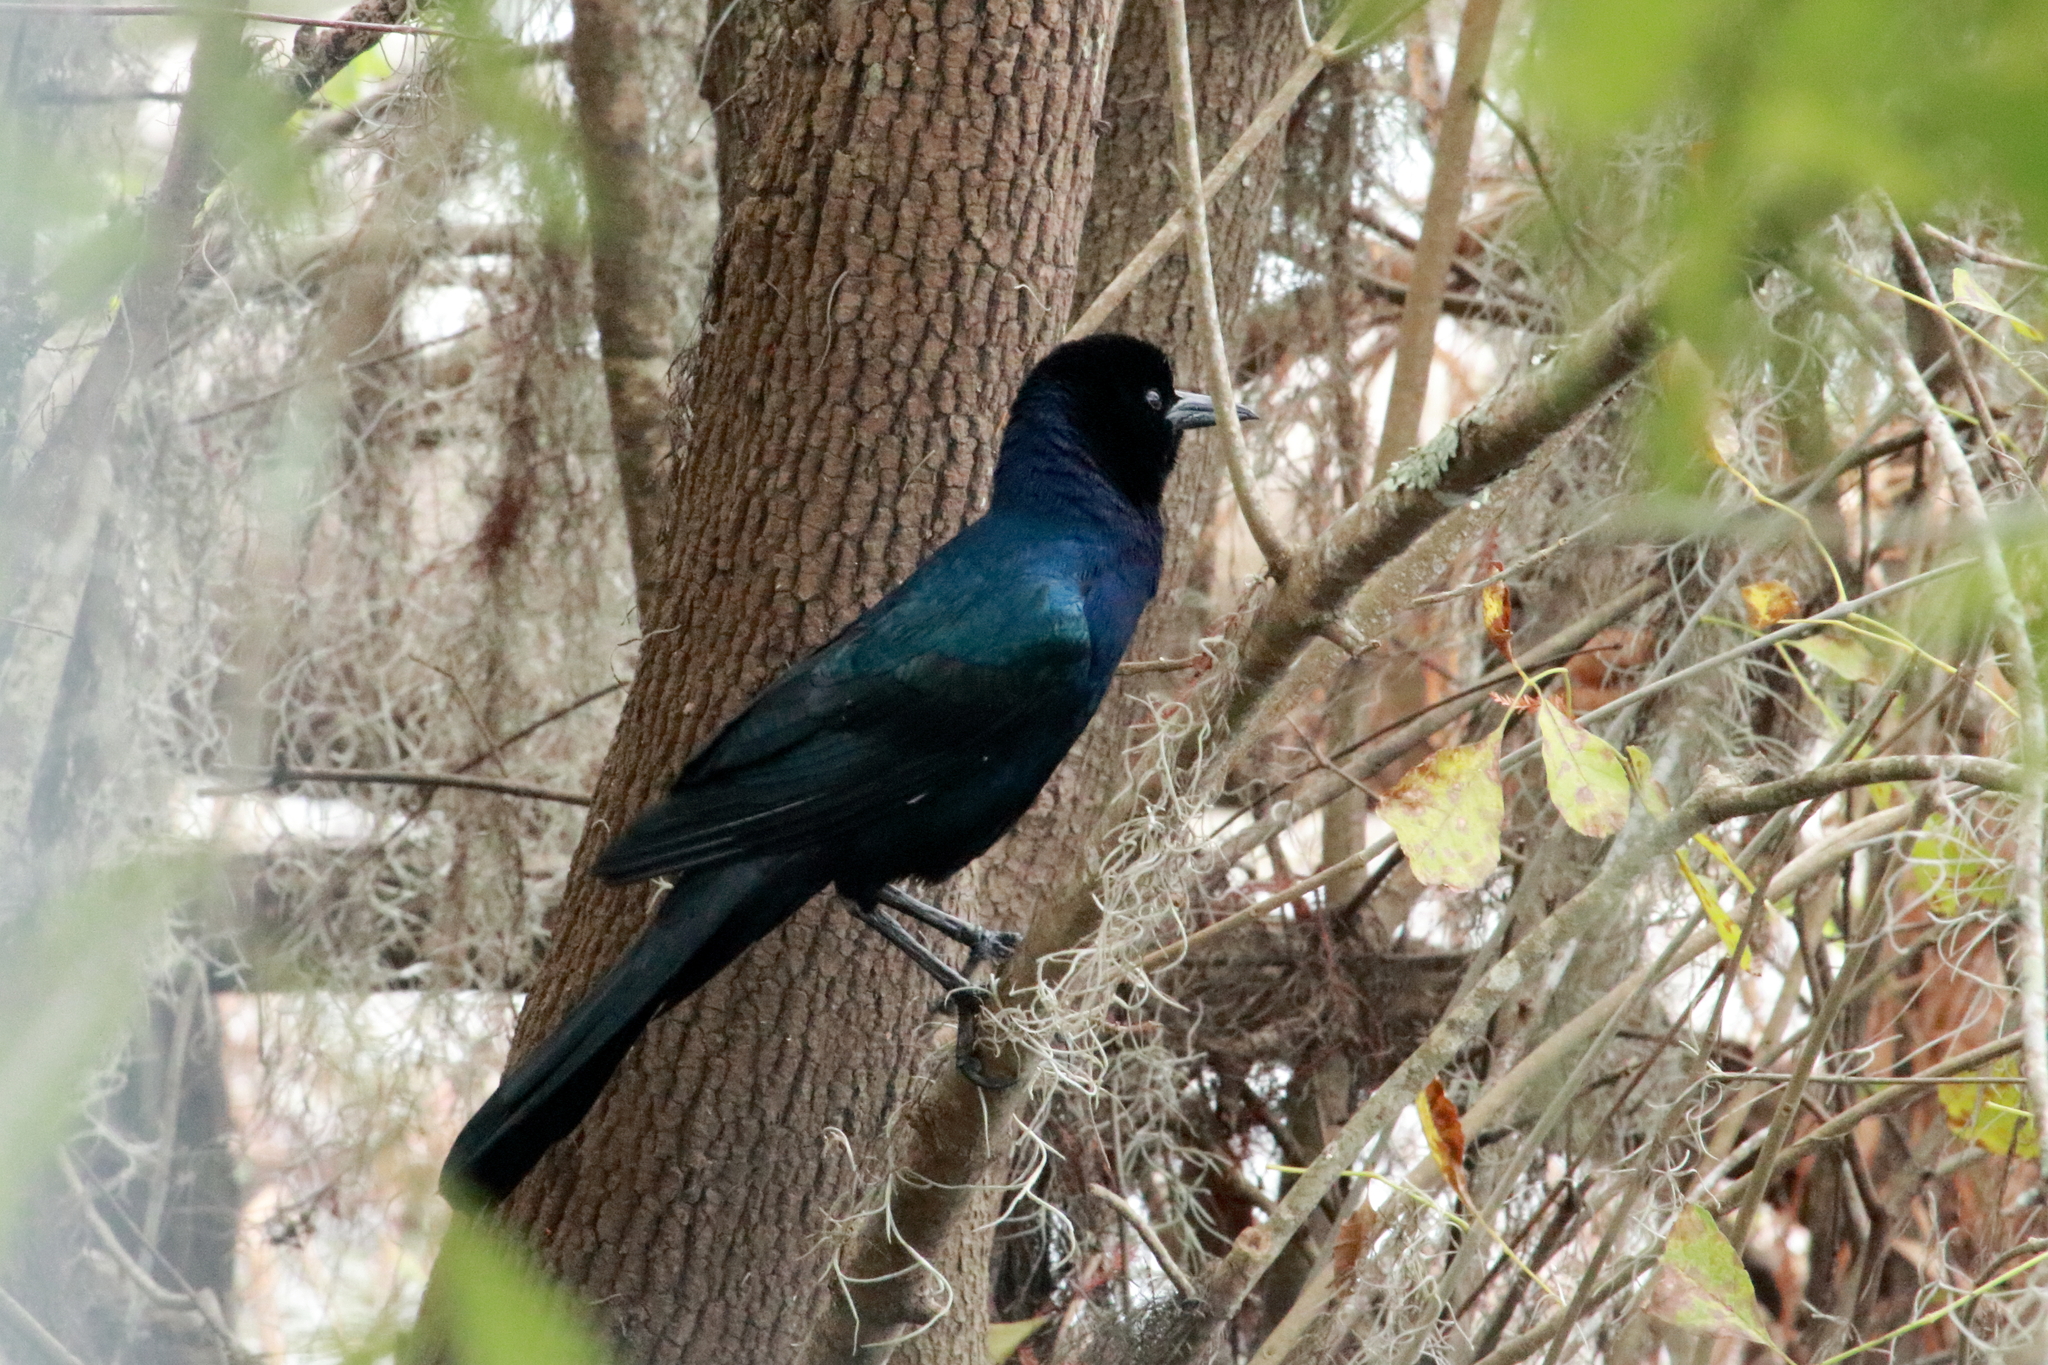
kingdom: Animalia
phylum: Chordata
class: Aves
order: Passeriformes
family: Icteridae
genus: Quiscalus
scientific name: Quiscalus major
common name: Boat-tailed grackle
